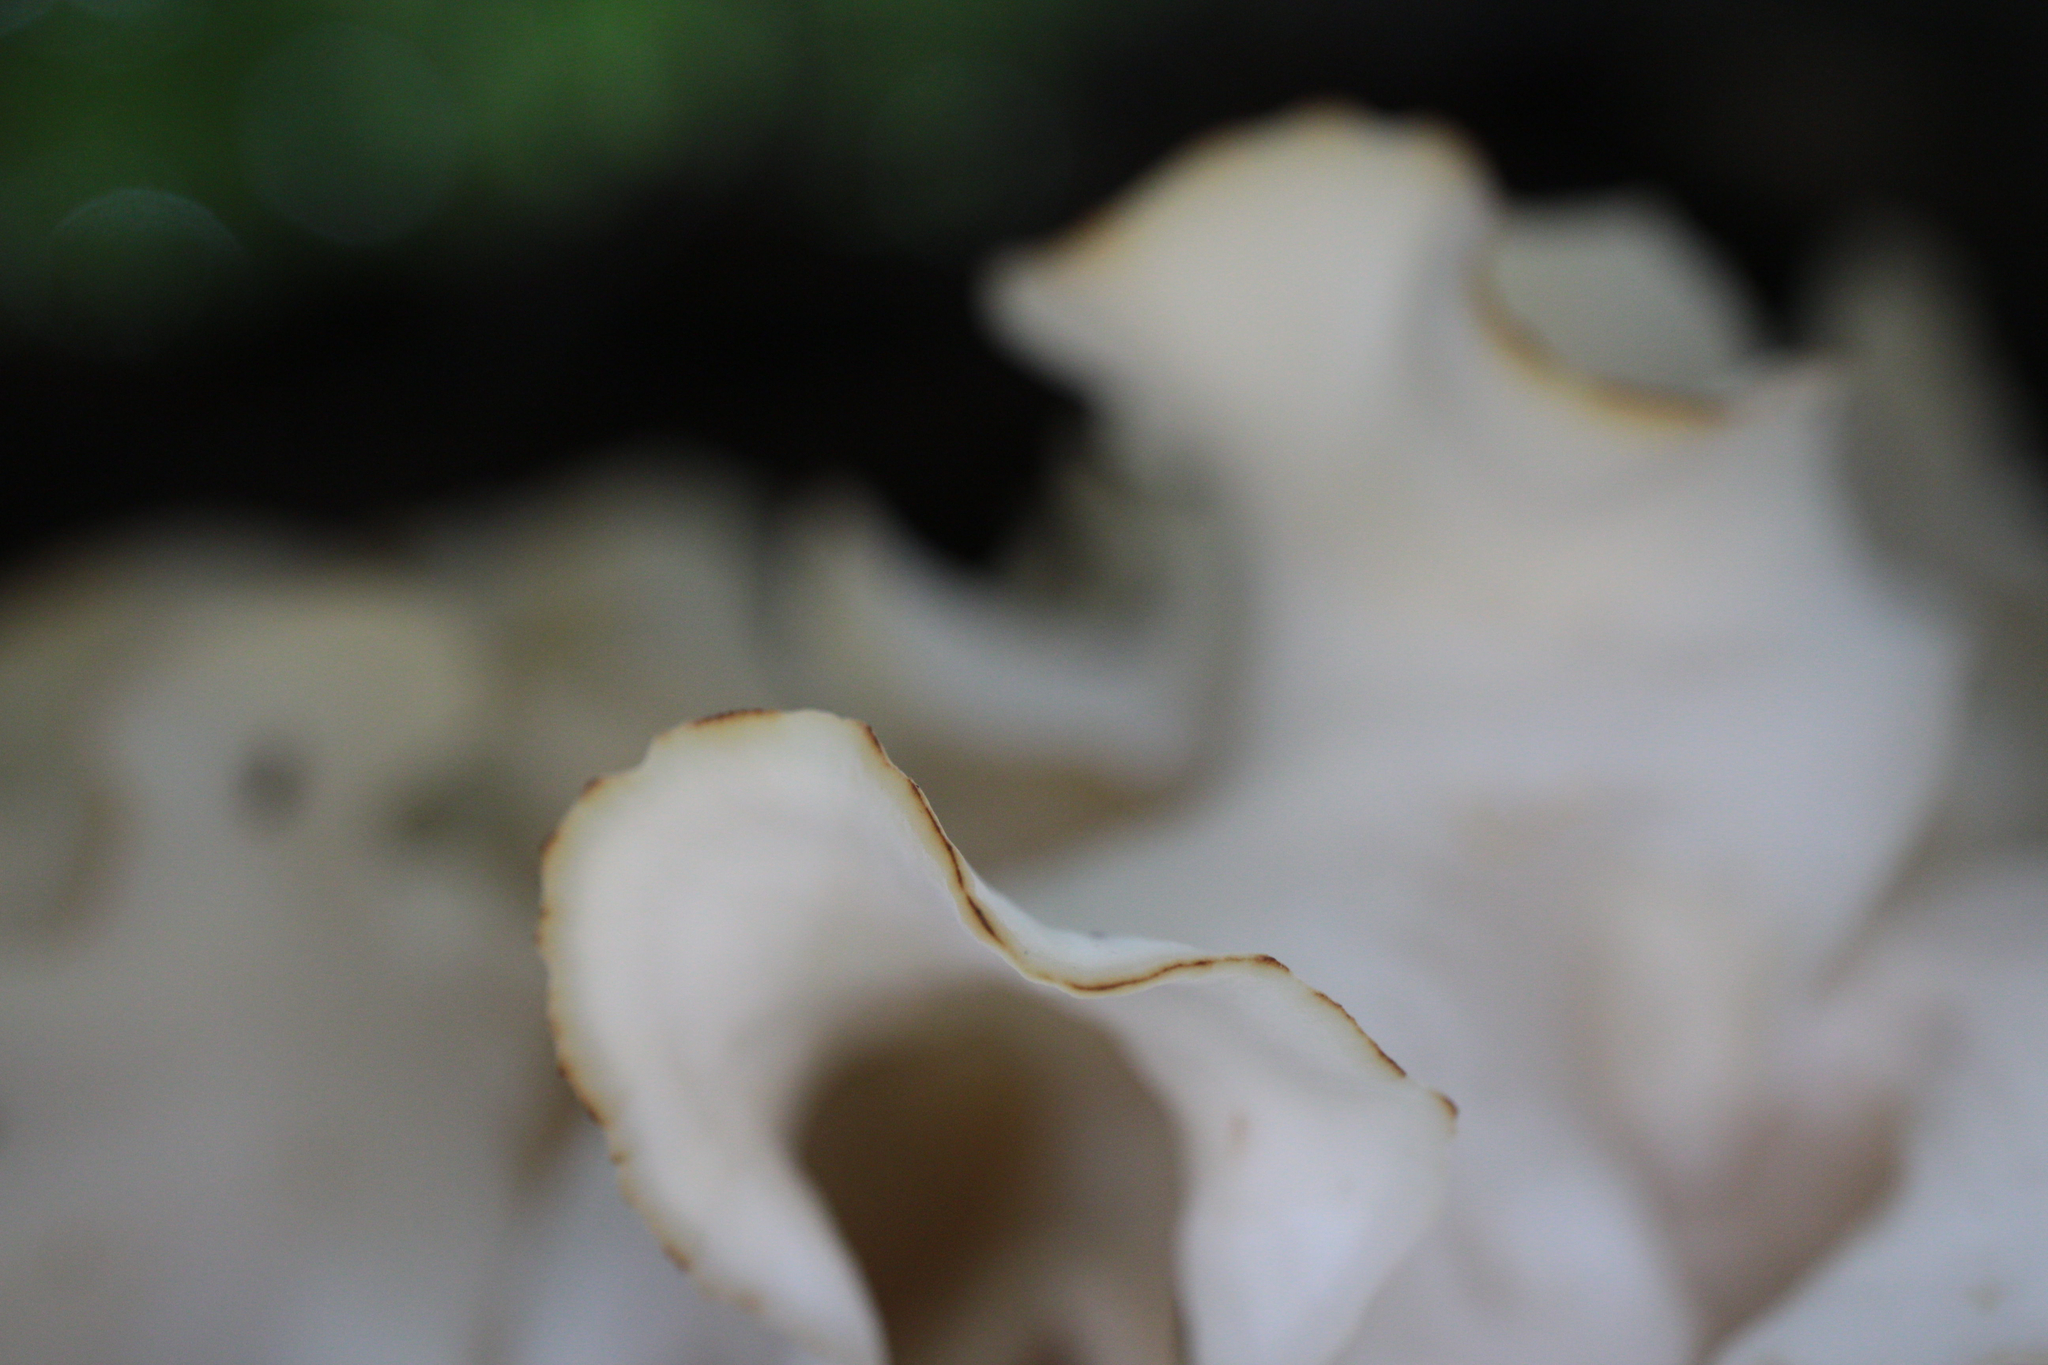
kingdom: Fungi
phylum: Basidiomycota
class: Agaricomycetes
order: Polyporales
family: Sparassidaceae
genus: Sparassis
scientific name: Sparassis americana
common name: American cauliflower mushroom
